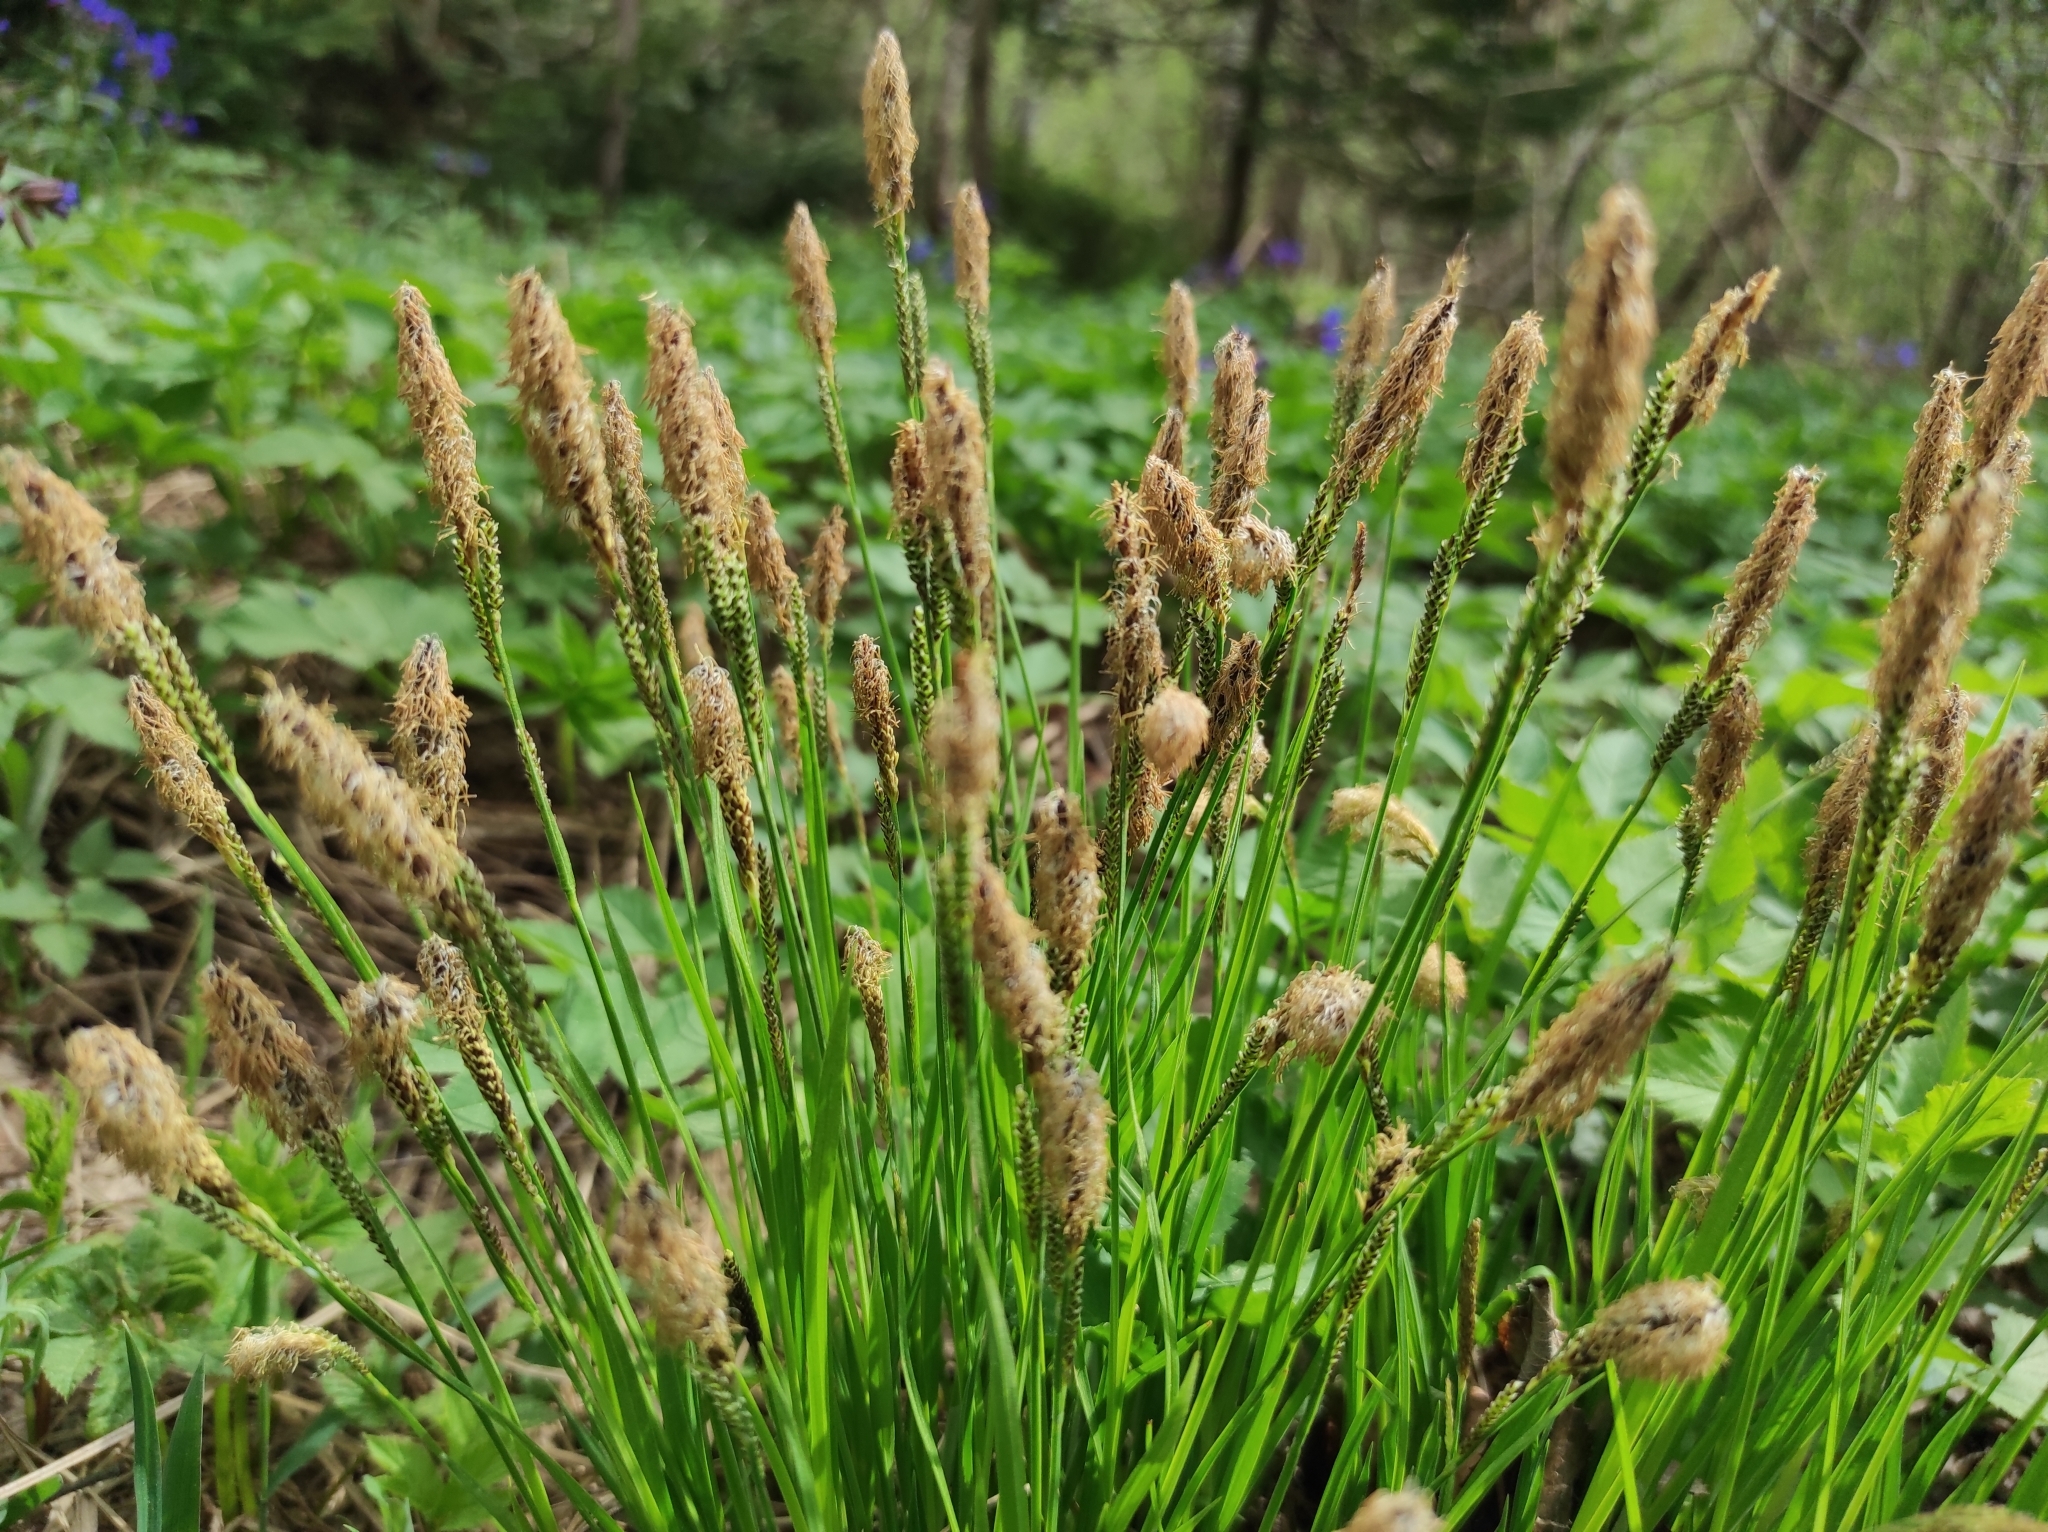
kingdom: Plantae
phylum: Tracheophyta
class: Liliopsida
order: Poales
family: Cyperaceae
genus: Carex
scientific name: Carex pediformis
